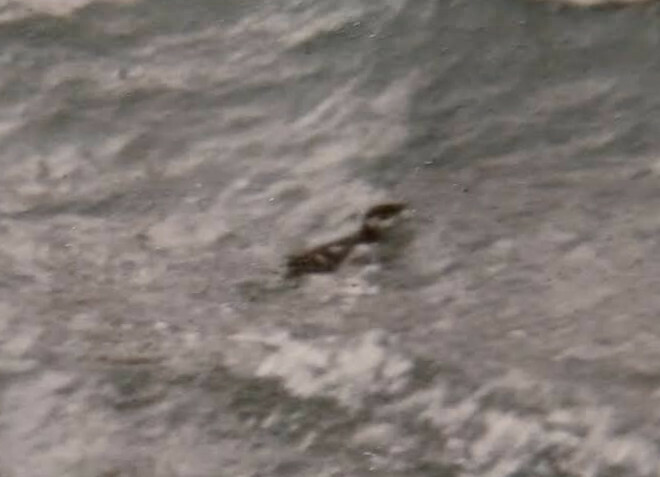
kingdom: Animalia
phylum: Chordata
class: Aves
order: Charadriiformes
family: Alcidae
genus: Alle
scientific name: Alle alle
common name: Little auk
